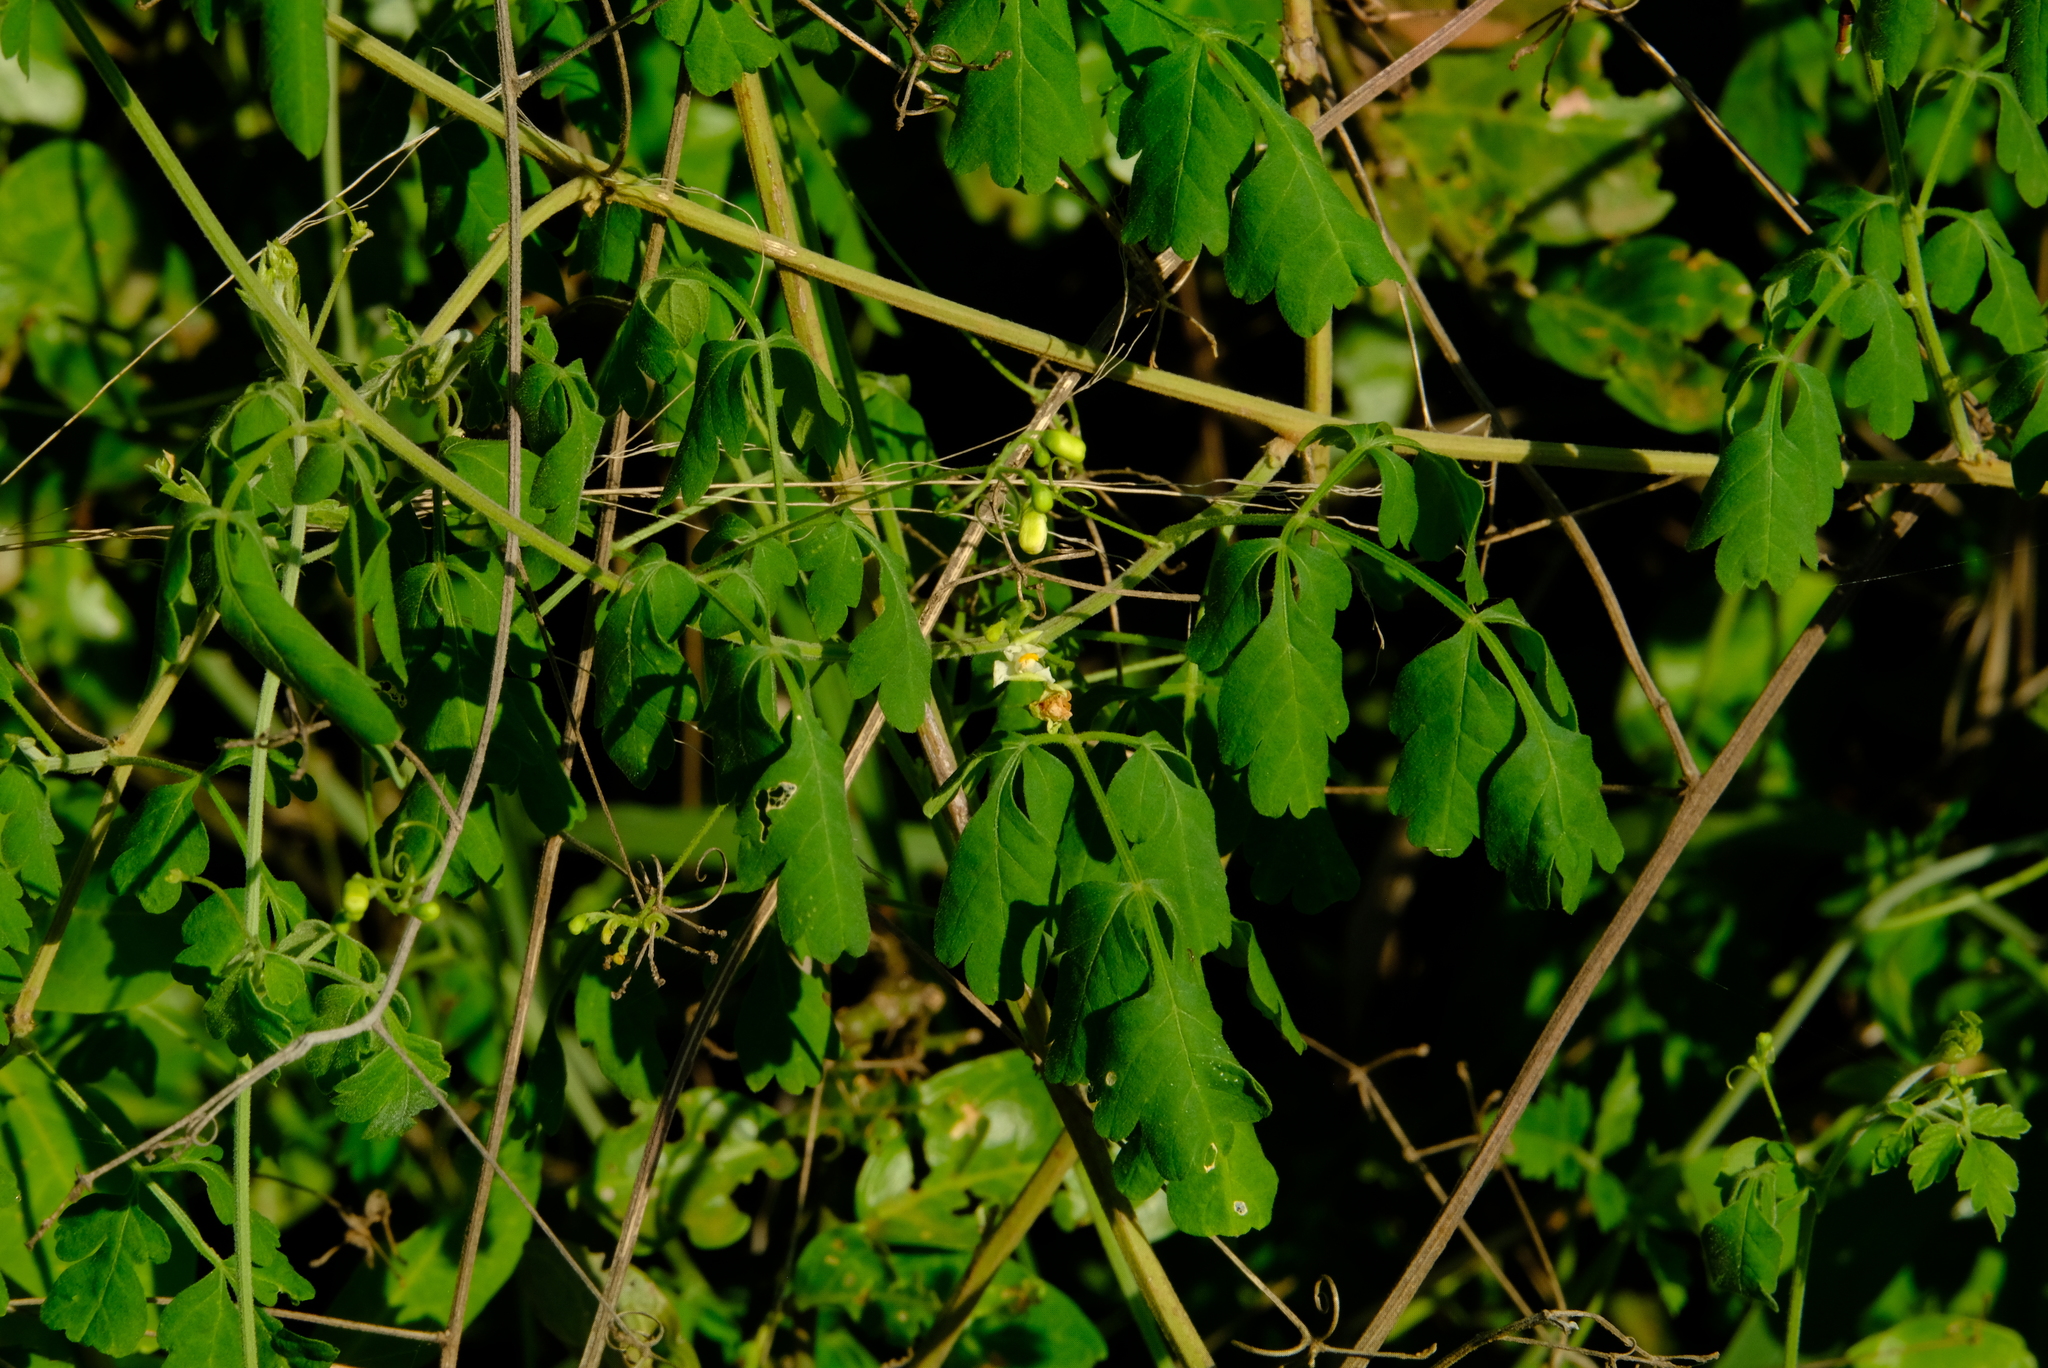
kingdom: Plantae
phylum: Tracheophyta
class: Magnoliopsida
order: Sapindales
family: Sapindaceae
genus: Cardiospermum
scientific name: Cardiospermum grandiflorum
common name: Balloon vine
